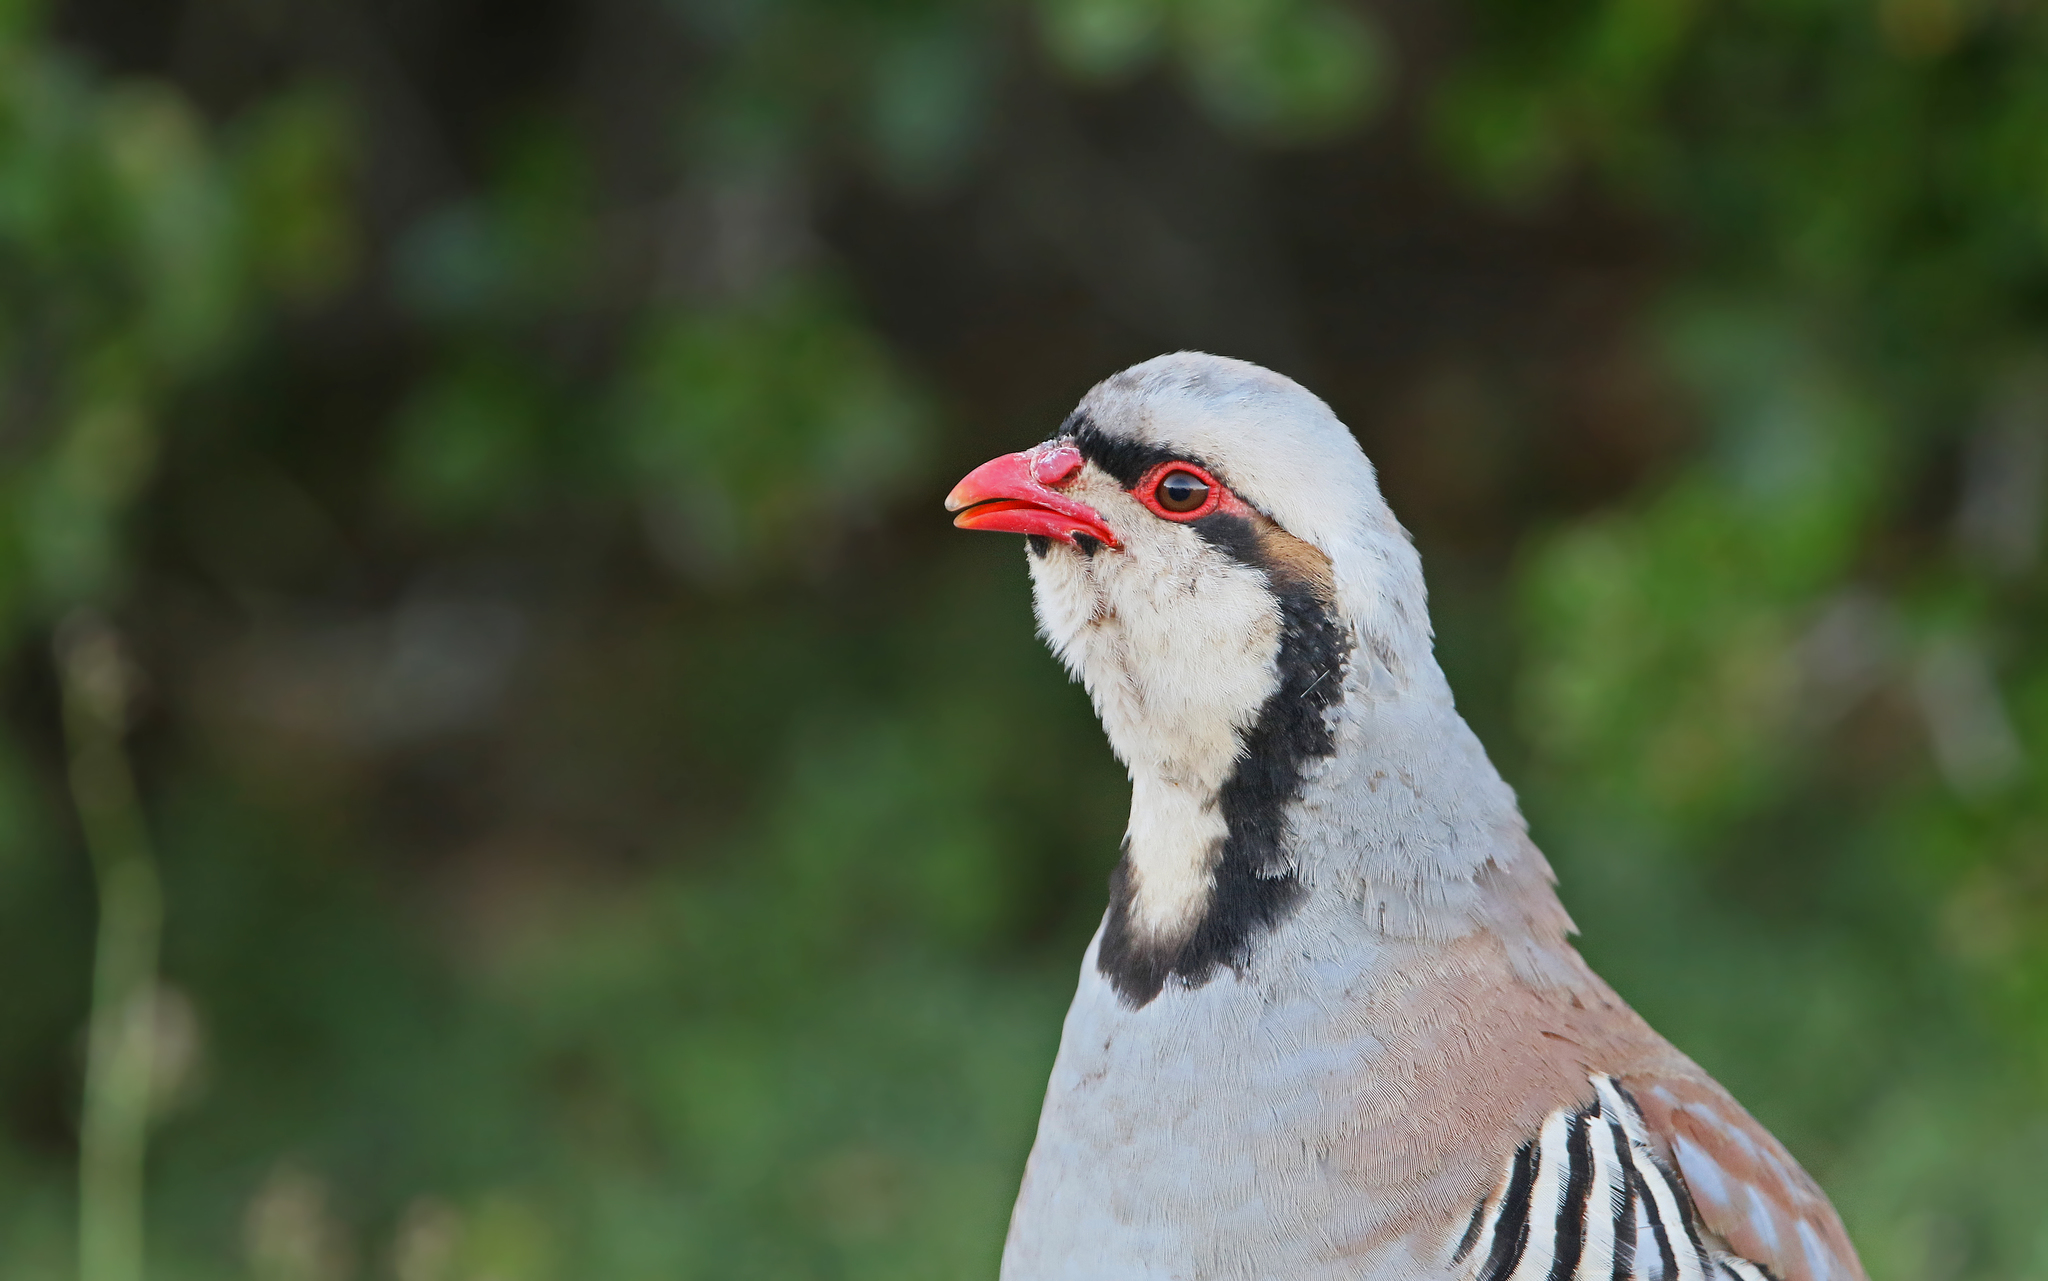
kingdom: Animalia
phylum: Chordata
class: Aves
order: Galliformes
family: Phasianidae
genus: Alectoris
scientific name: Alectoris chukar
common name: Chukar
